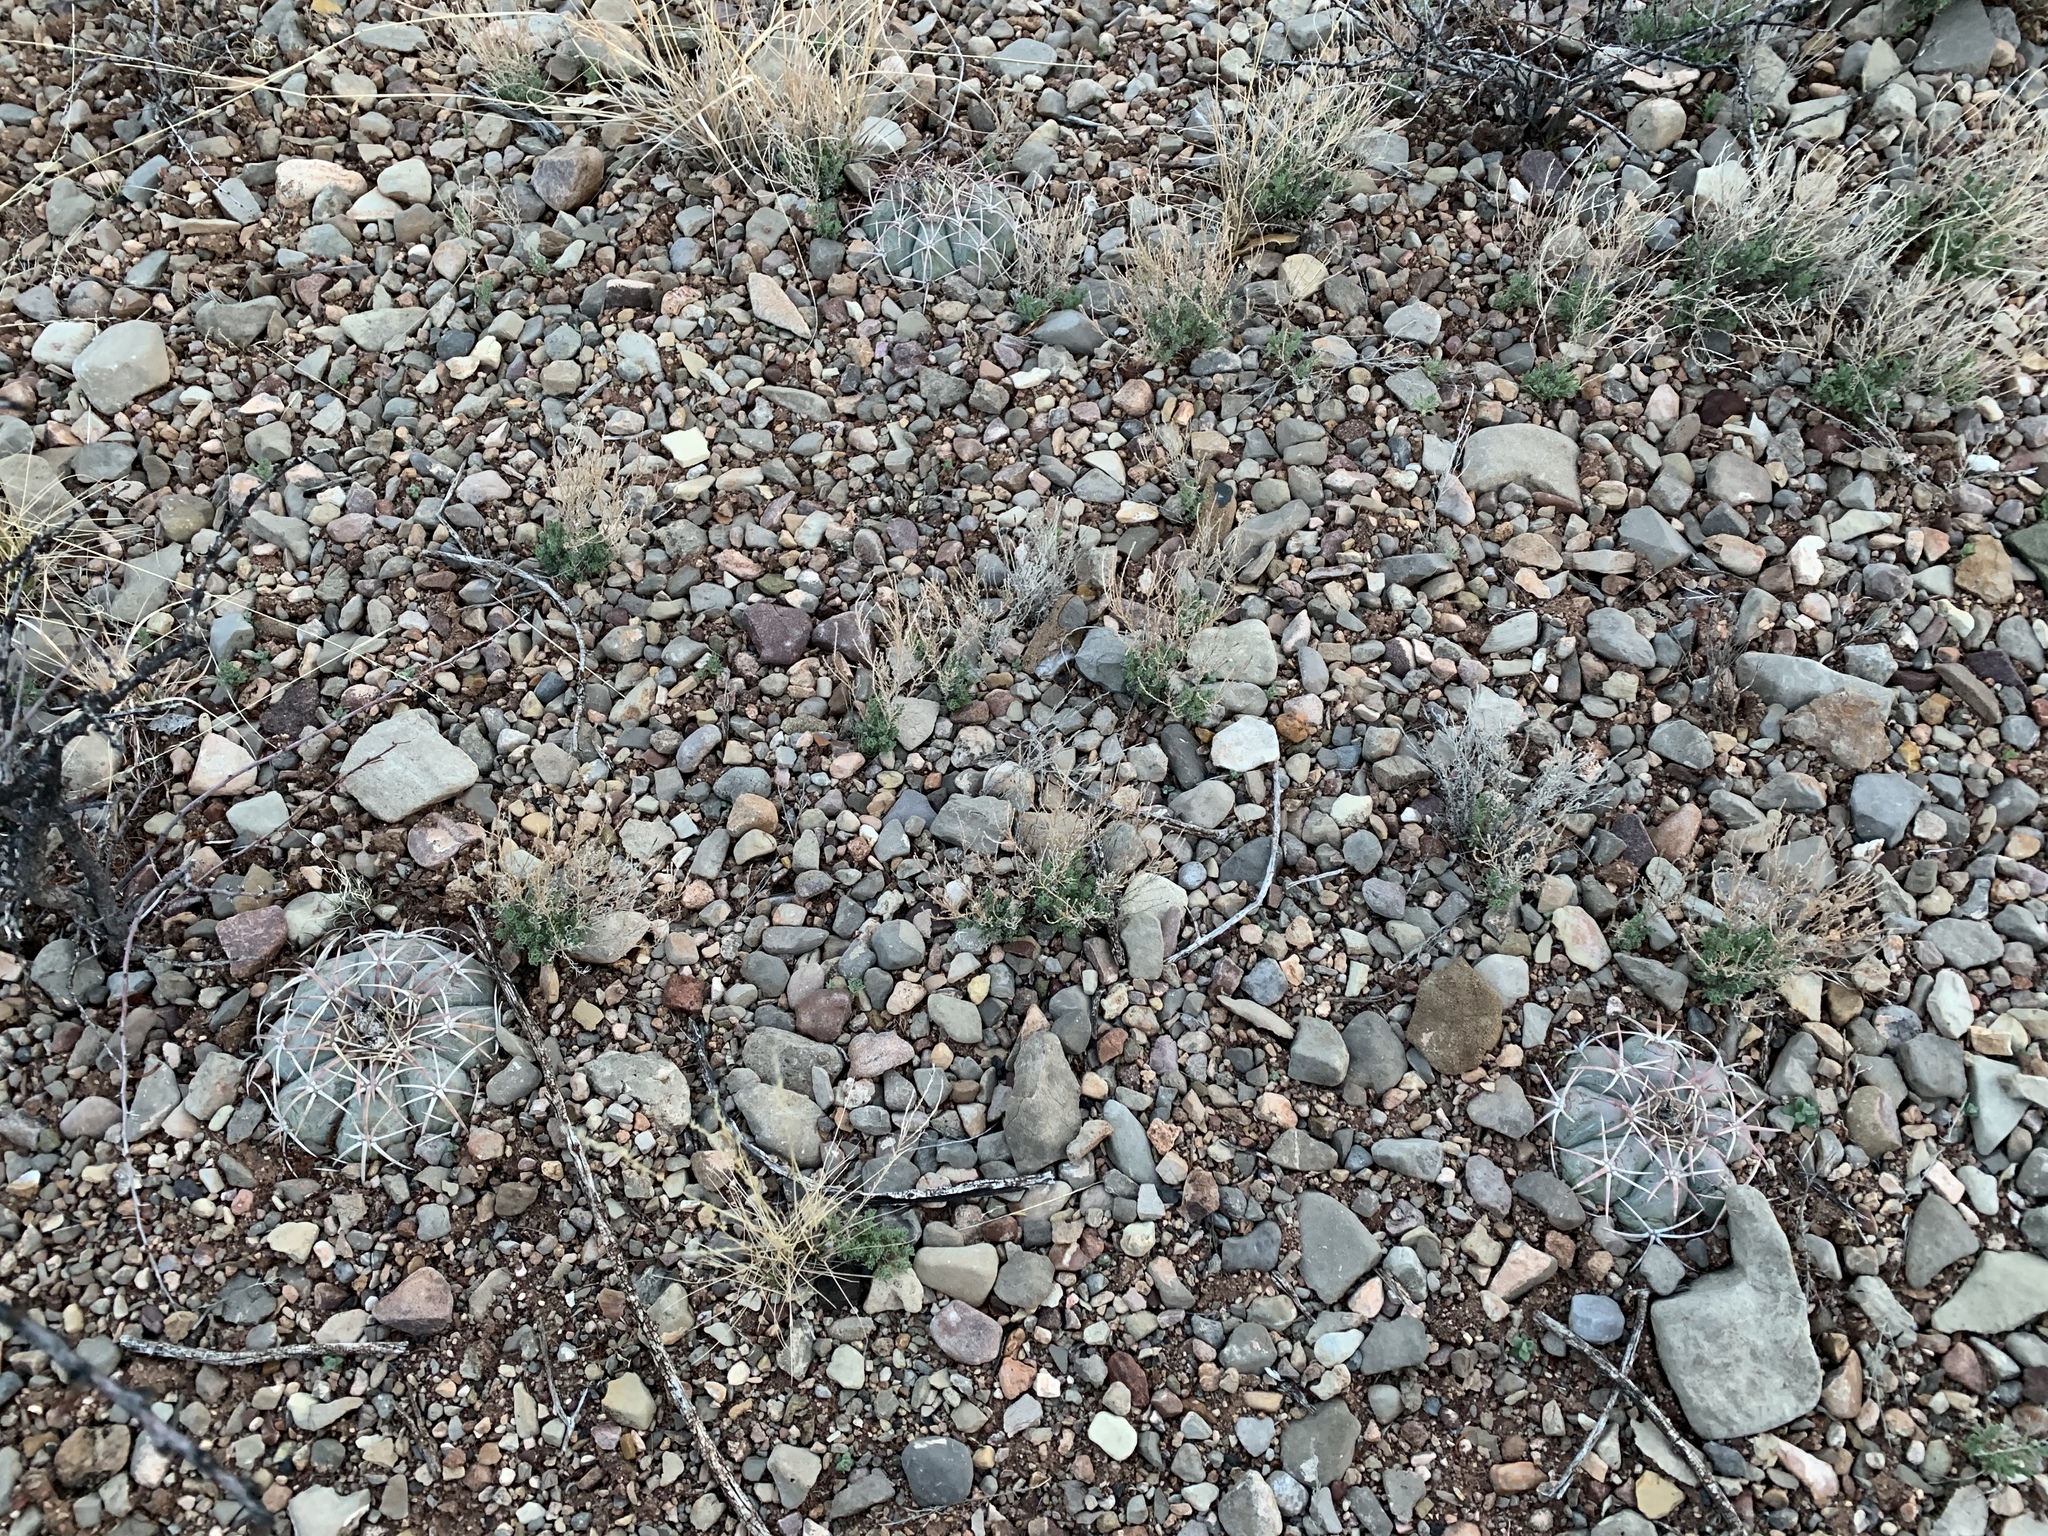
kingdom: Plantae
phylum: Tracheophyta
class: Magnoliopsida
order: Caryophyllales
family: Cactaceae
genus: Echinocactus
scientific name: Echinocactus horizonthalonius
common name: Devilshead
